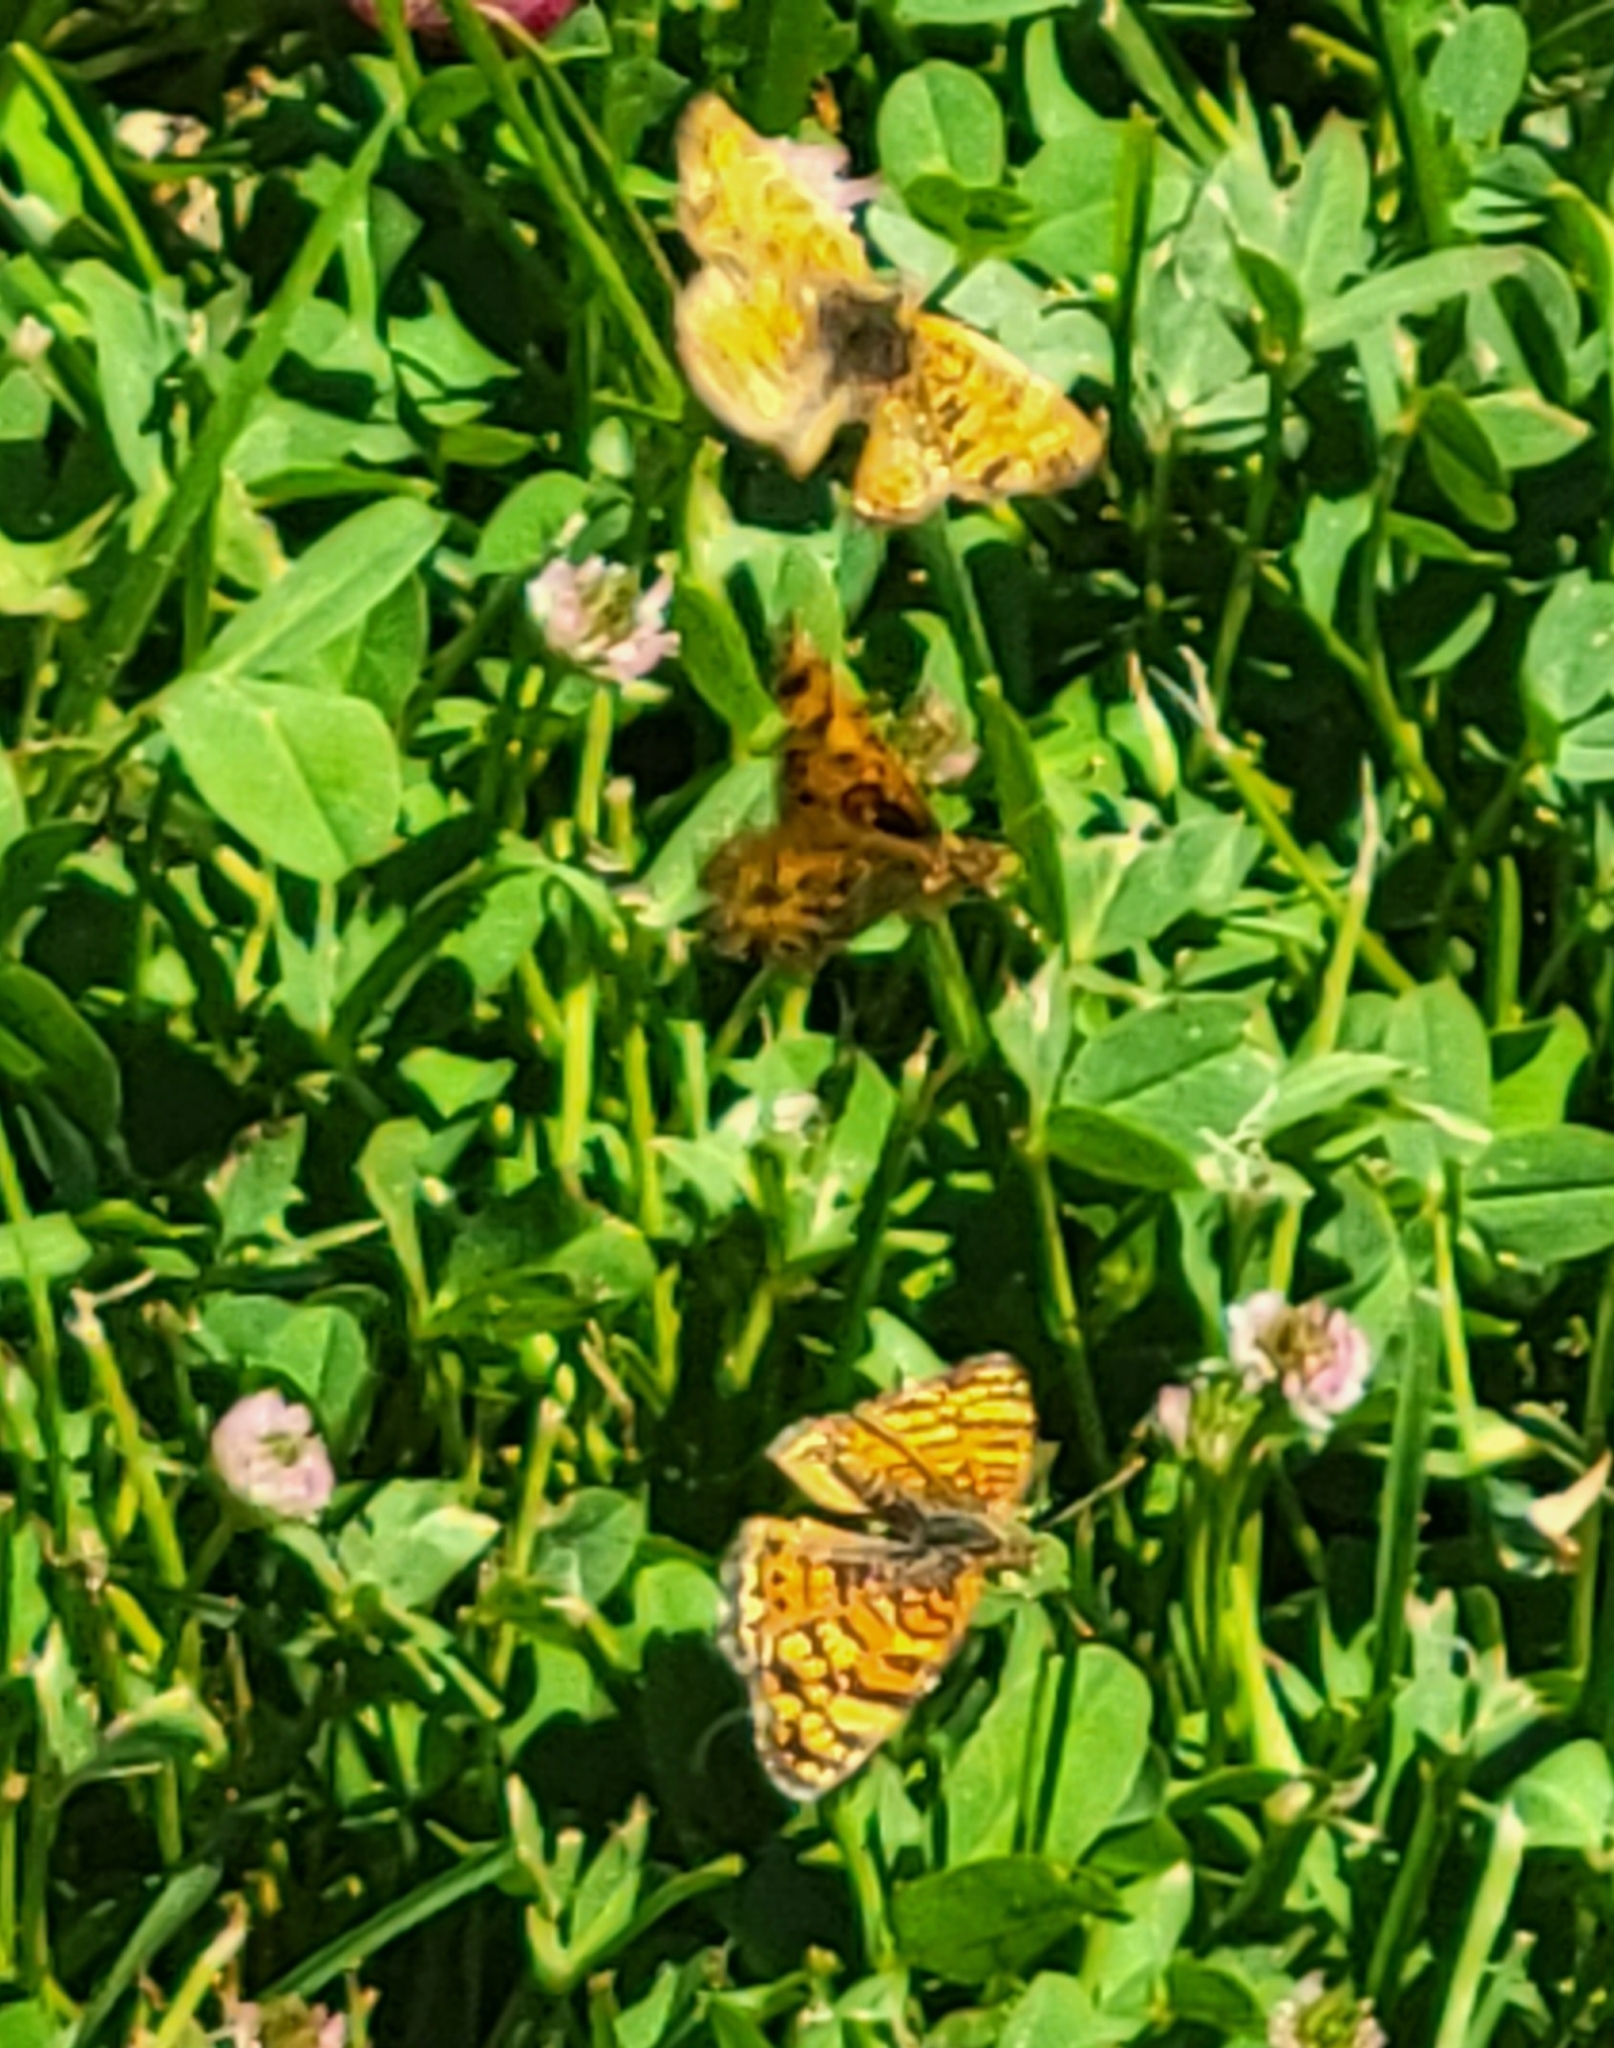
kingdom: Animalia
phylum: Arthropoda
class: Insecta
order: Lepidoptera
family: Nymphalidae
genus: Eresia
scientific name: Eresia aveyrona
